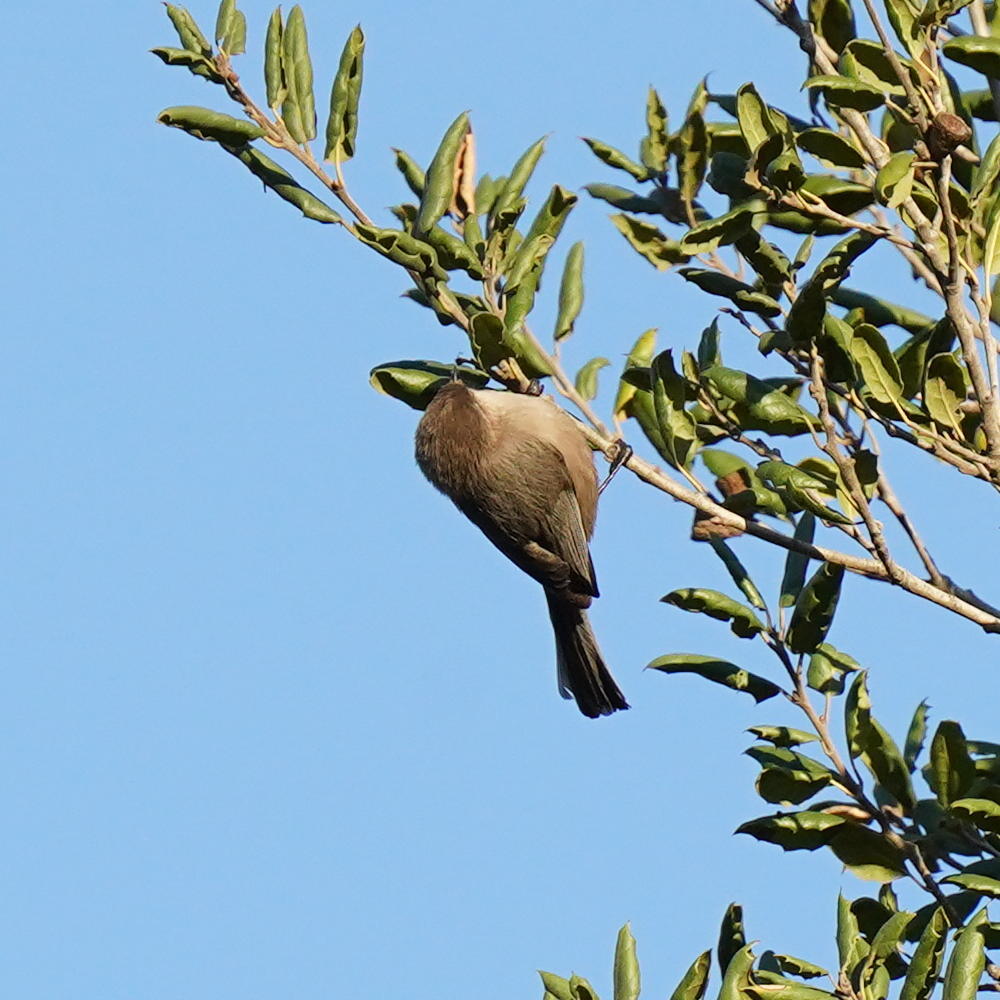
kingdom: Animalia
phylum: Chordata
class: Aves
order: Passeriformes
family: Aegithalidae
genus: Psaltriparus
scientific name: Psaltriparus minimus
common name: American bushtit
